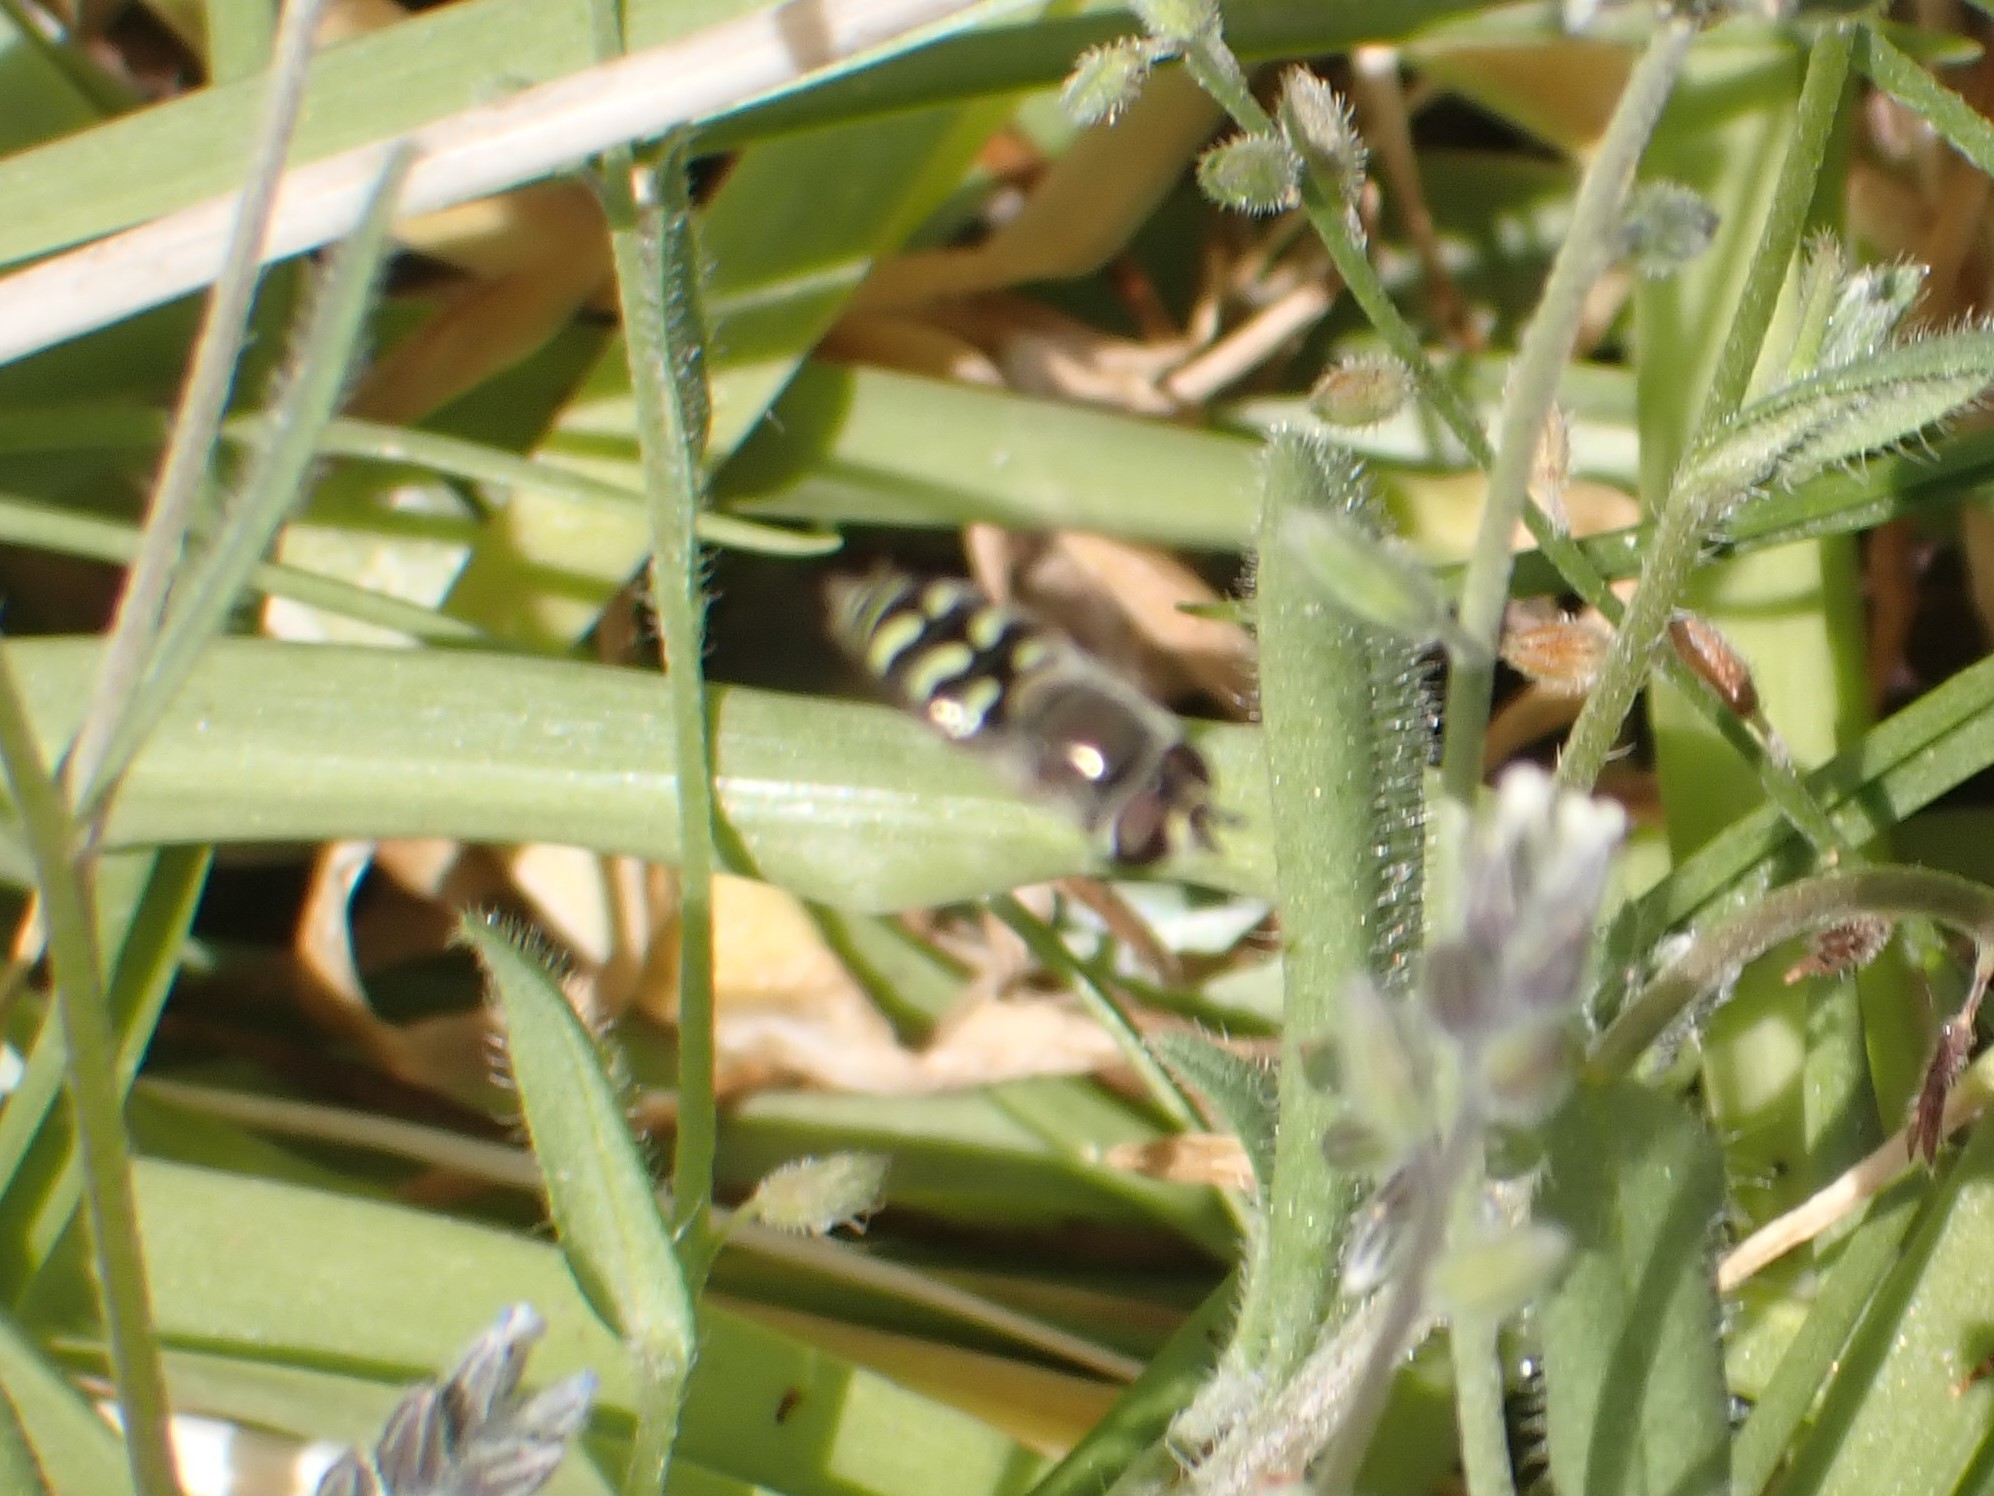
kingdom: Animalia
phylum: Arthropoda
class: Insecta
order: Diptera
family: Syrphidae
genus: Eupeodes
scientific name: Eupeodes volucris
